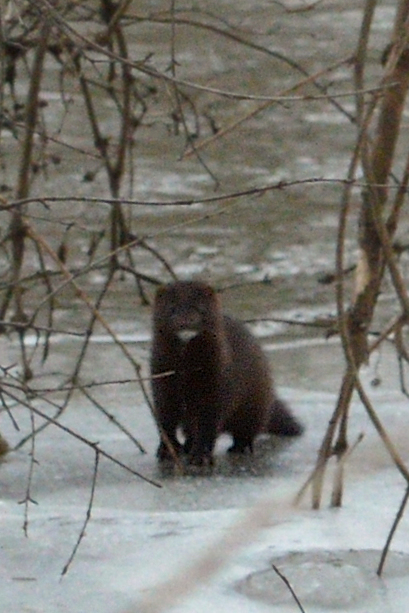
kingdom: Animalia
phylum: Chordata
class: Mammalia
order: Carnivora
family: Mustelidae
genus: Mustela
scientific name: Mustela
